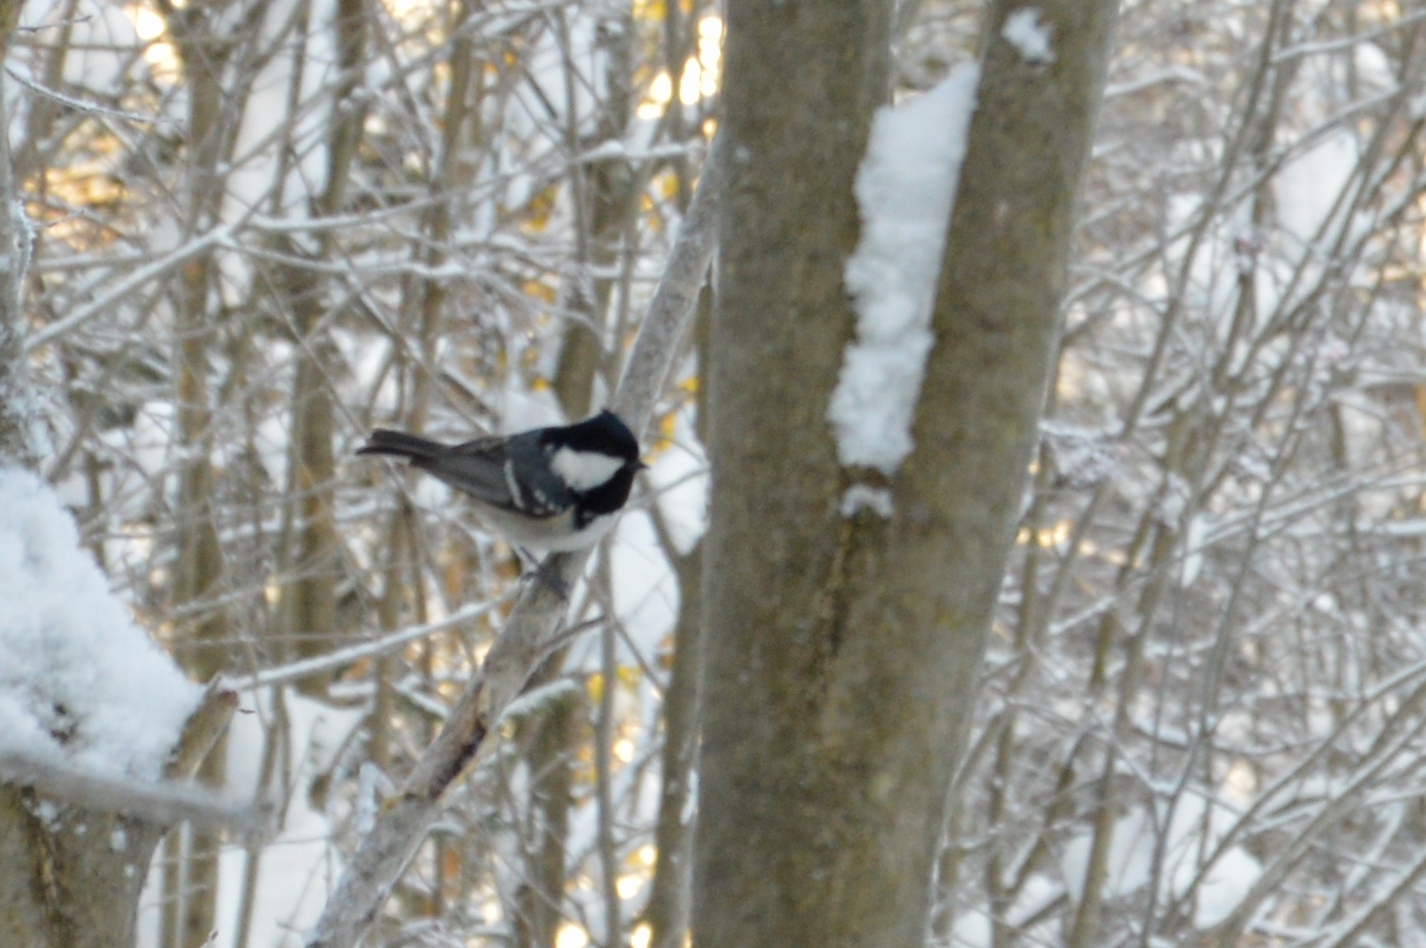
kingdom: Animalia
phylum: Chordata
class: Aves
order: Passeriformes
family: Paridae
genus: Periparus
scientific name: Periparus ater
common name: Coal tit
